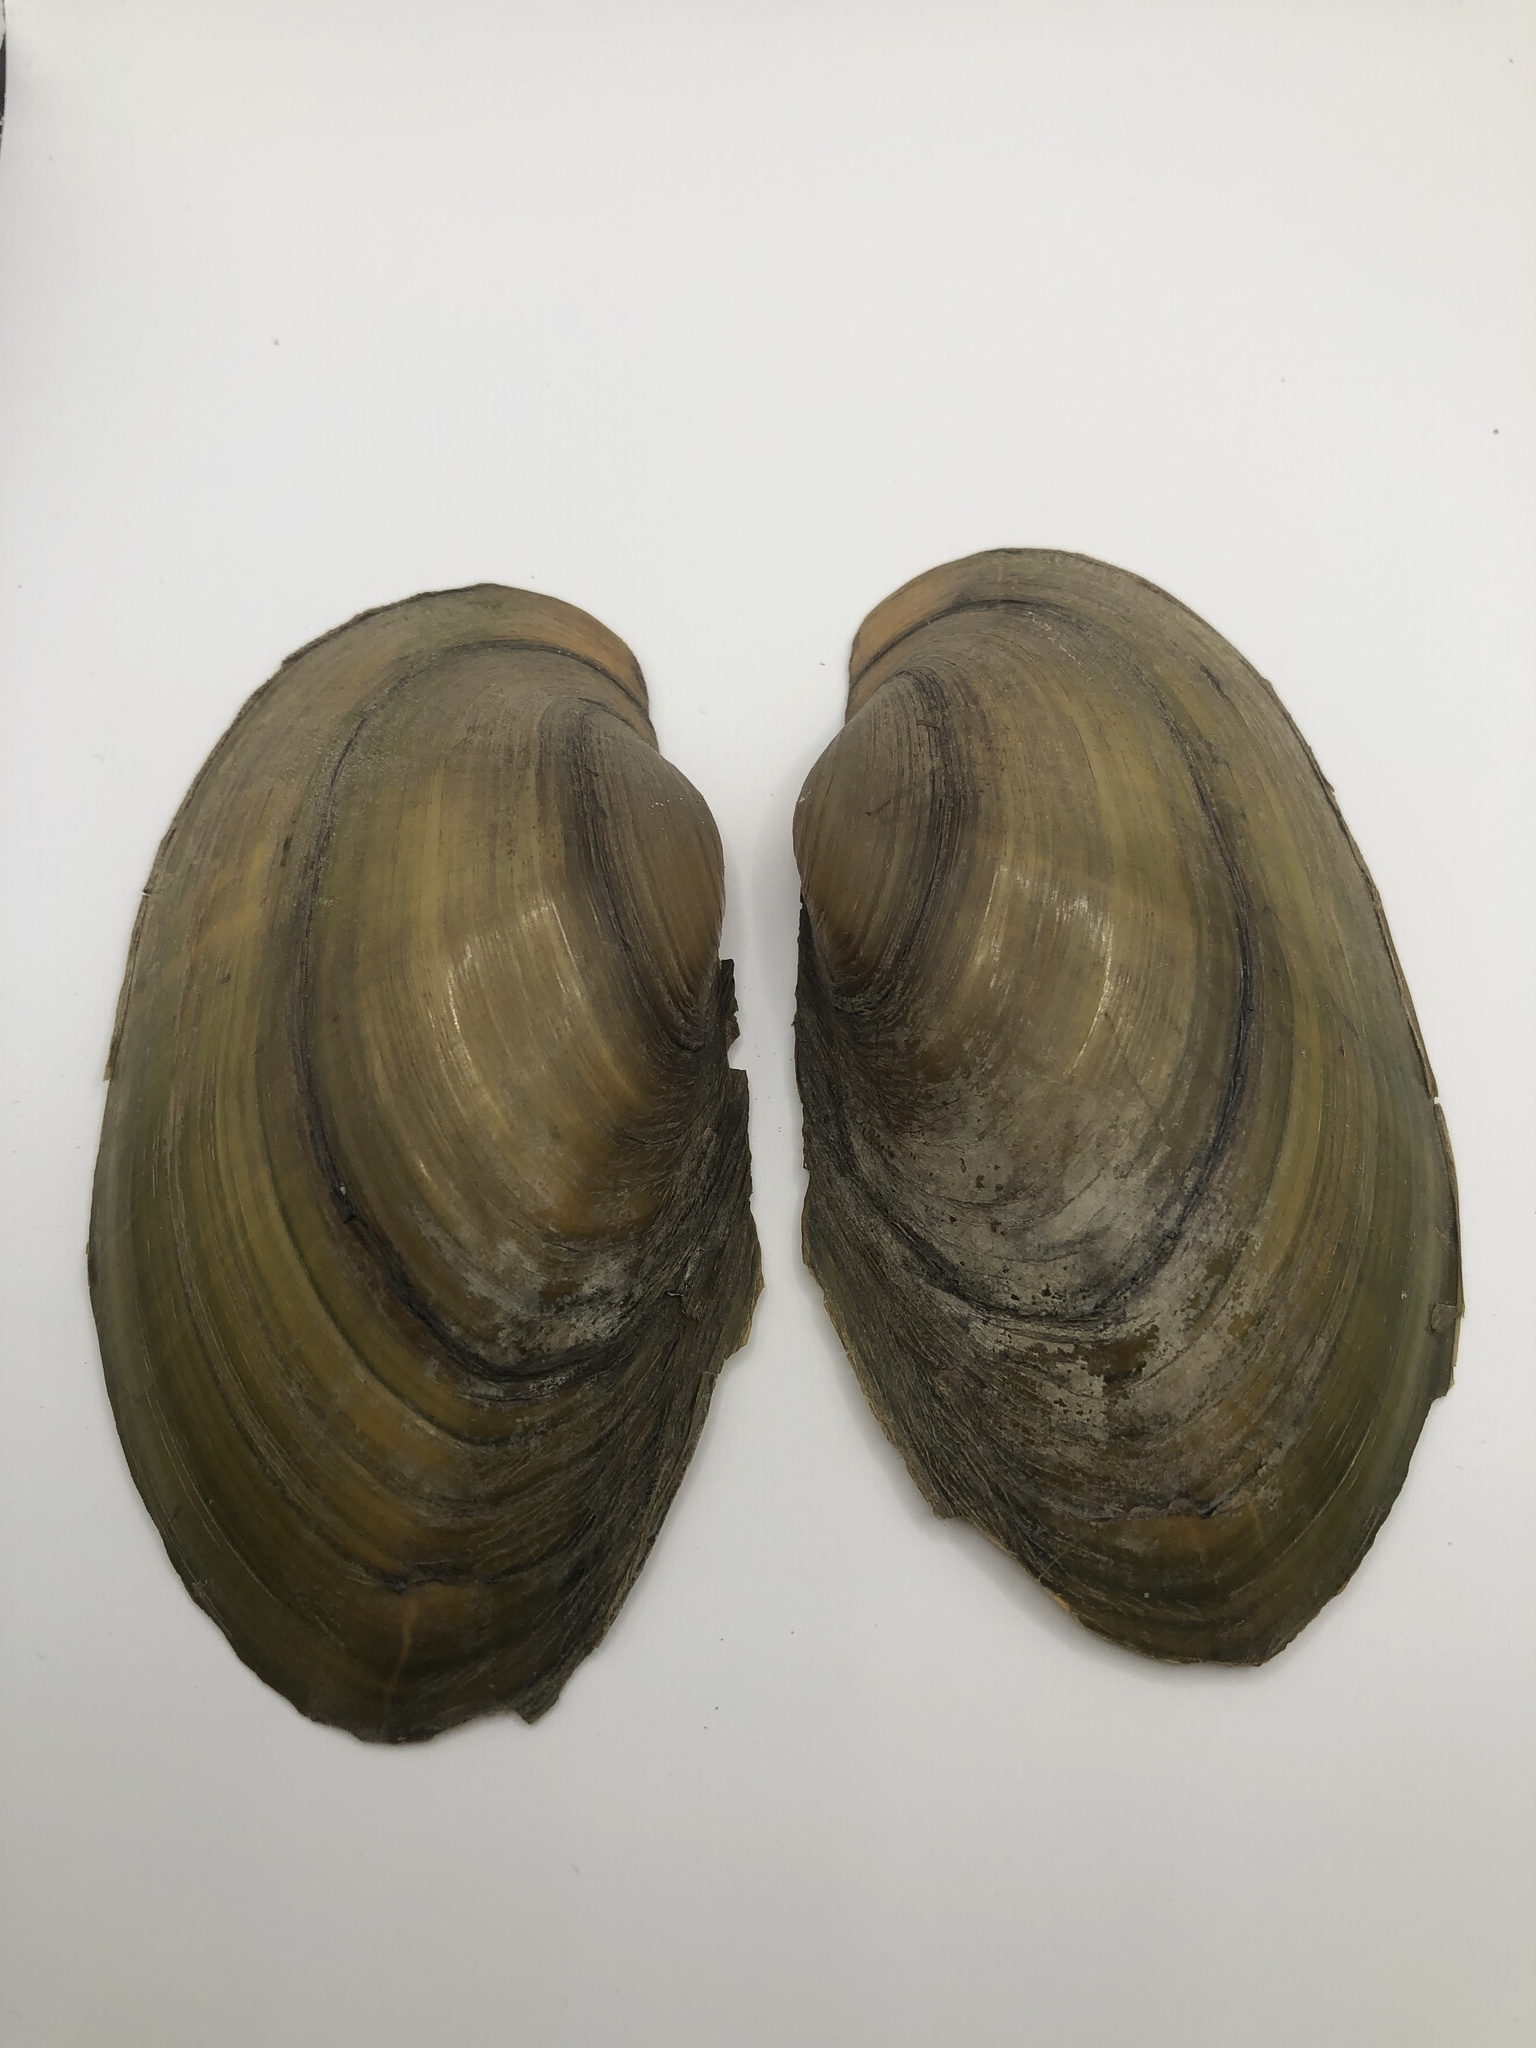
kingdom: Animalia
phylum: Mollusca
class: Bivalvia
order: Unionida
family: Unionidae
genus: Pyganodon
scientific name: Pyganodon grandis
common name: Giant floater
